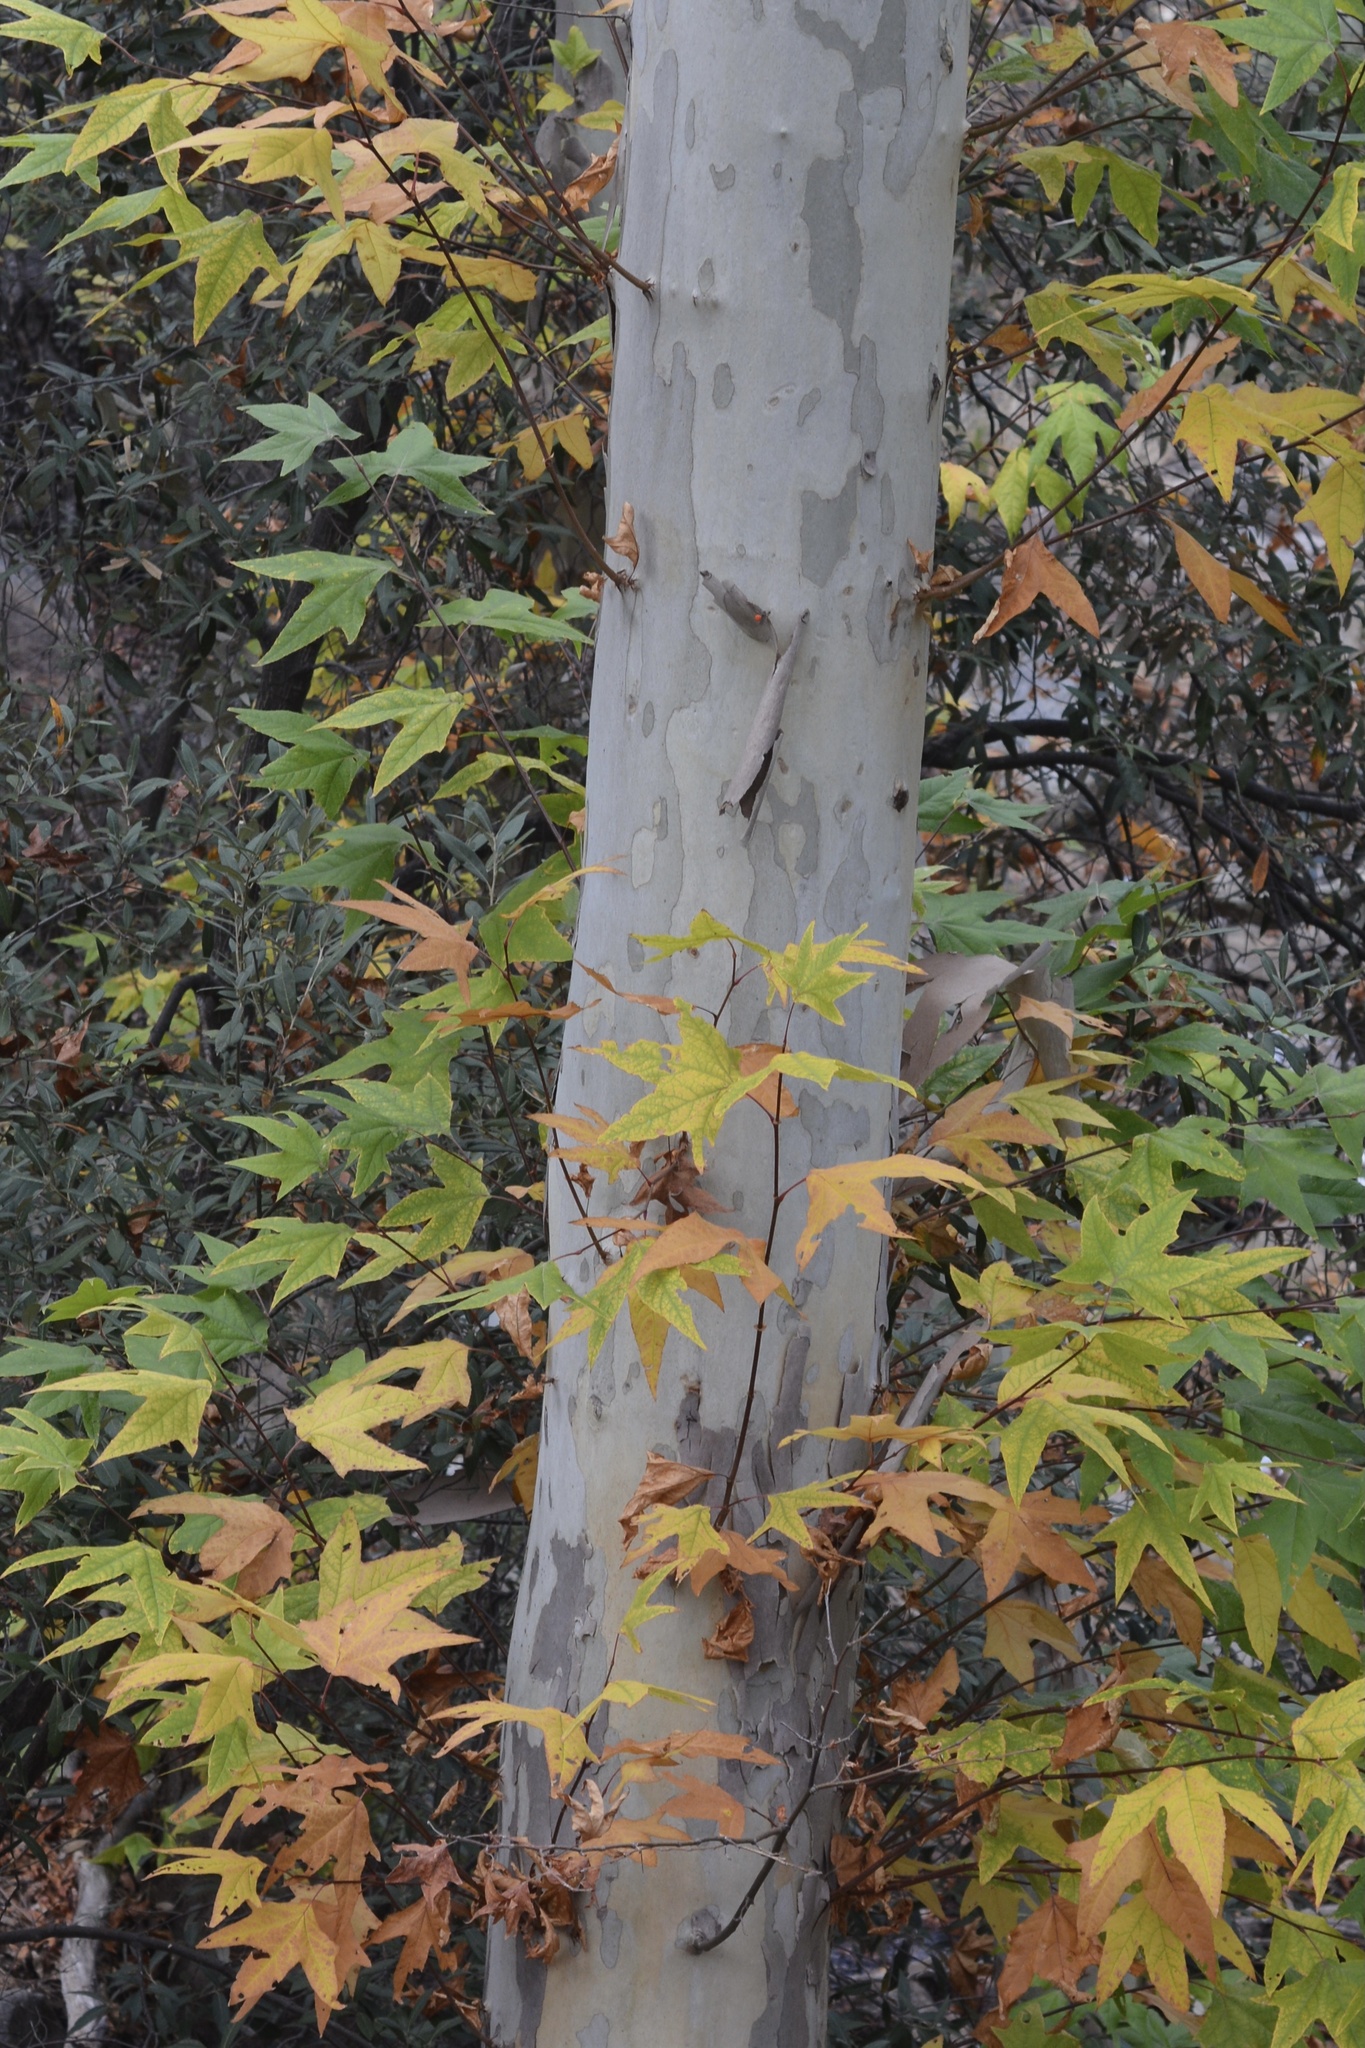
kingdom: Plantae
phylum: Tracheophyta
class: Magnoliopsida
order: Proteales
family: Platanaceae
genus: Platanus
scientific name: Platanus wrightii
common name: Arizona sycamore
